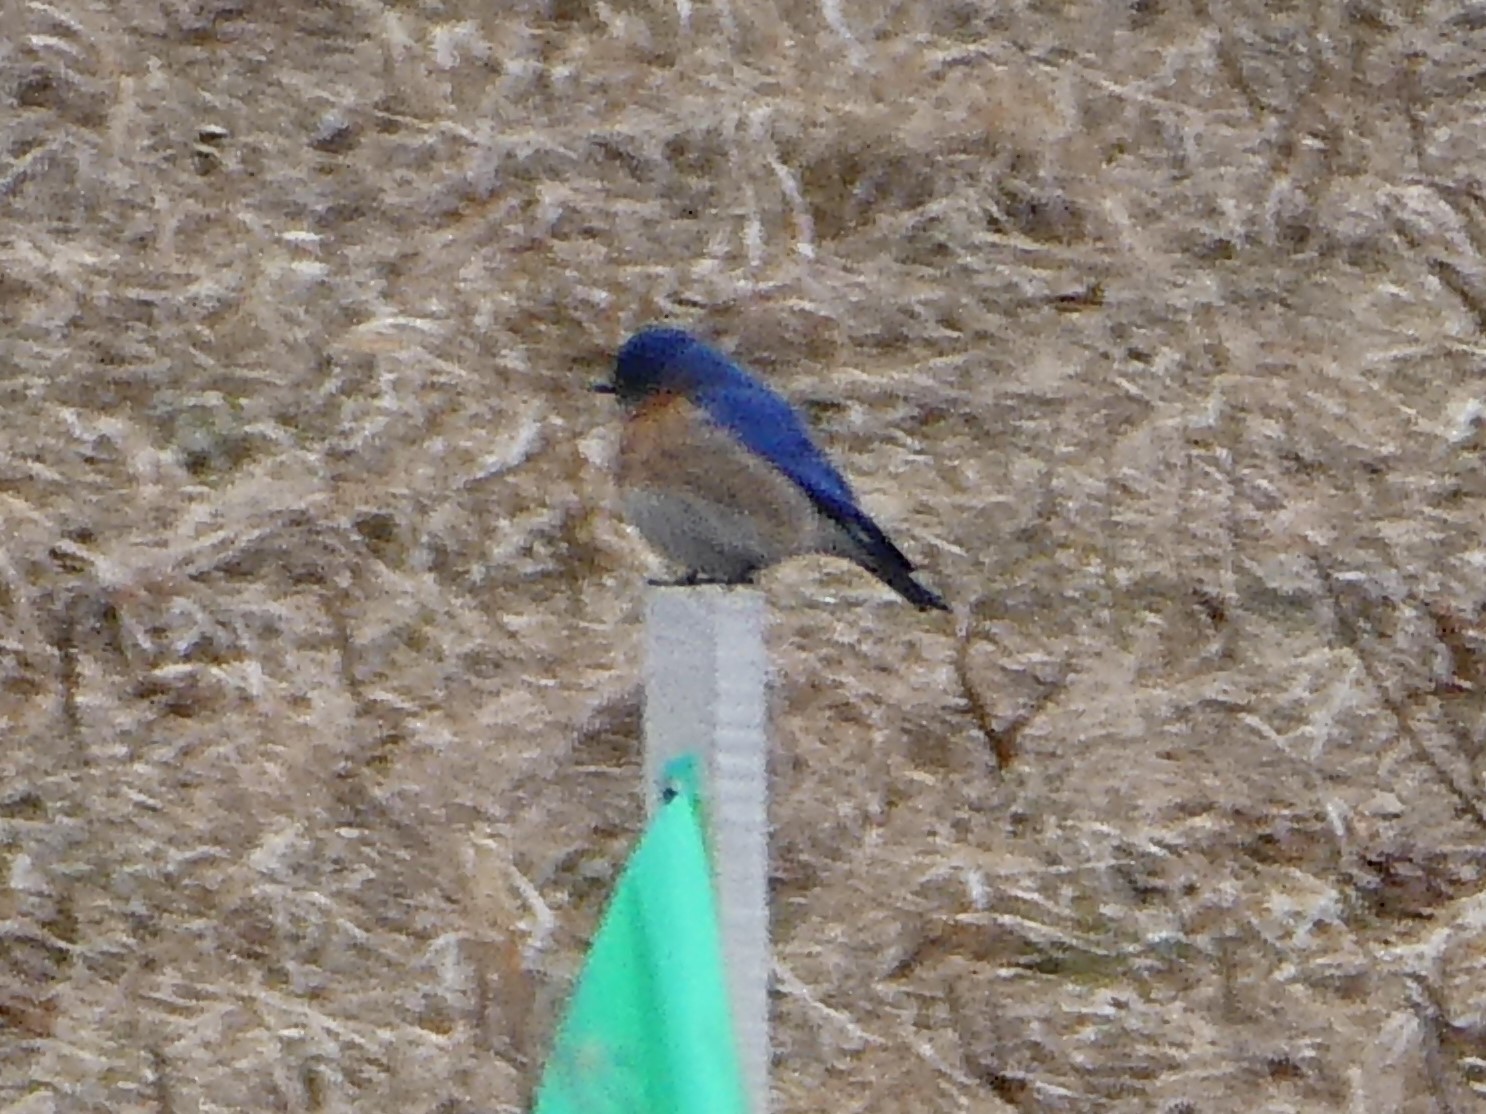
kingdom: Animalia
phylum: Chordata
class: Aves
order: Passeriformes
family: Turdidae
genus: Sialia
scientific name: Sialia sialis
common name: Eastern bluebird
